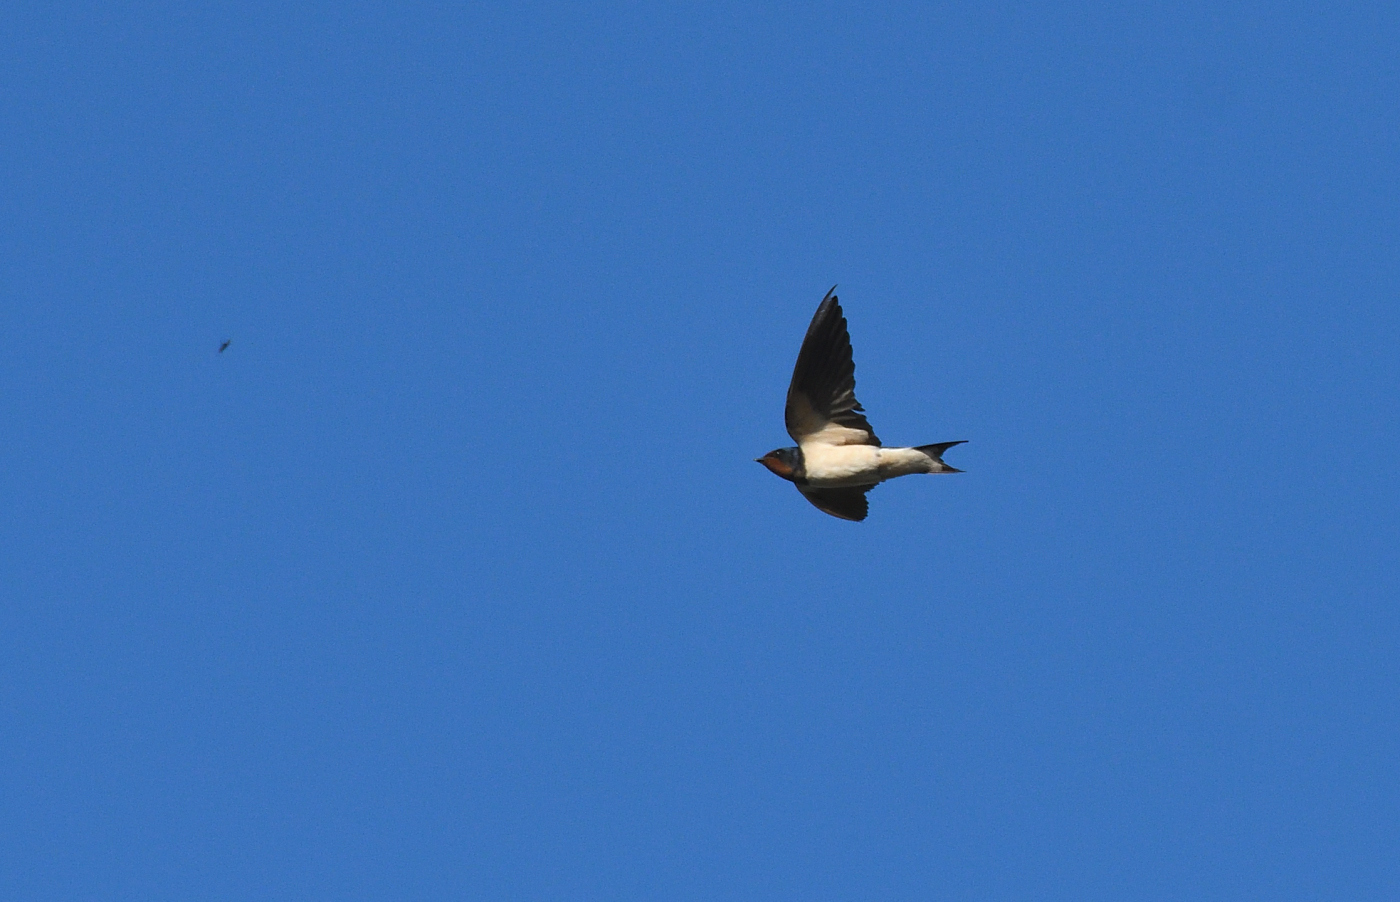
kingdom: Animalia
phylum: Chordata
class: Aves
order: Passeriformes
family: Hirundinidae
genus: Hirundo
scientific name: Hirundo rustica
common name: Barn swallow
